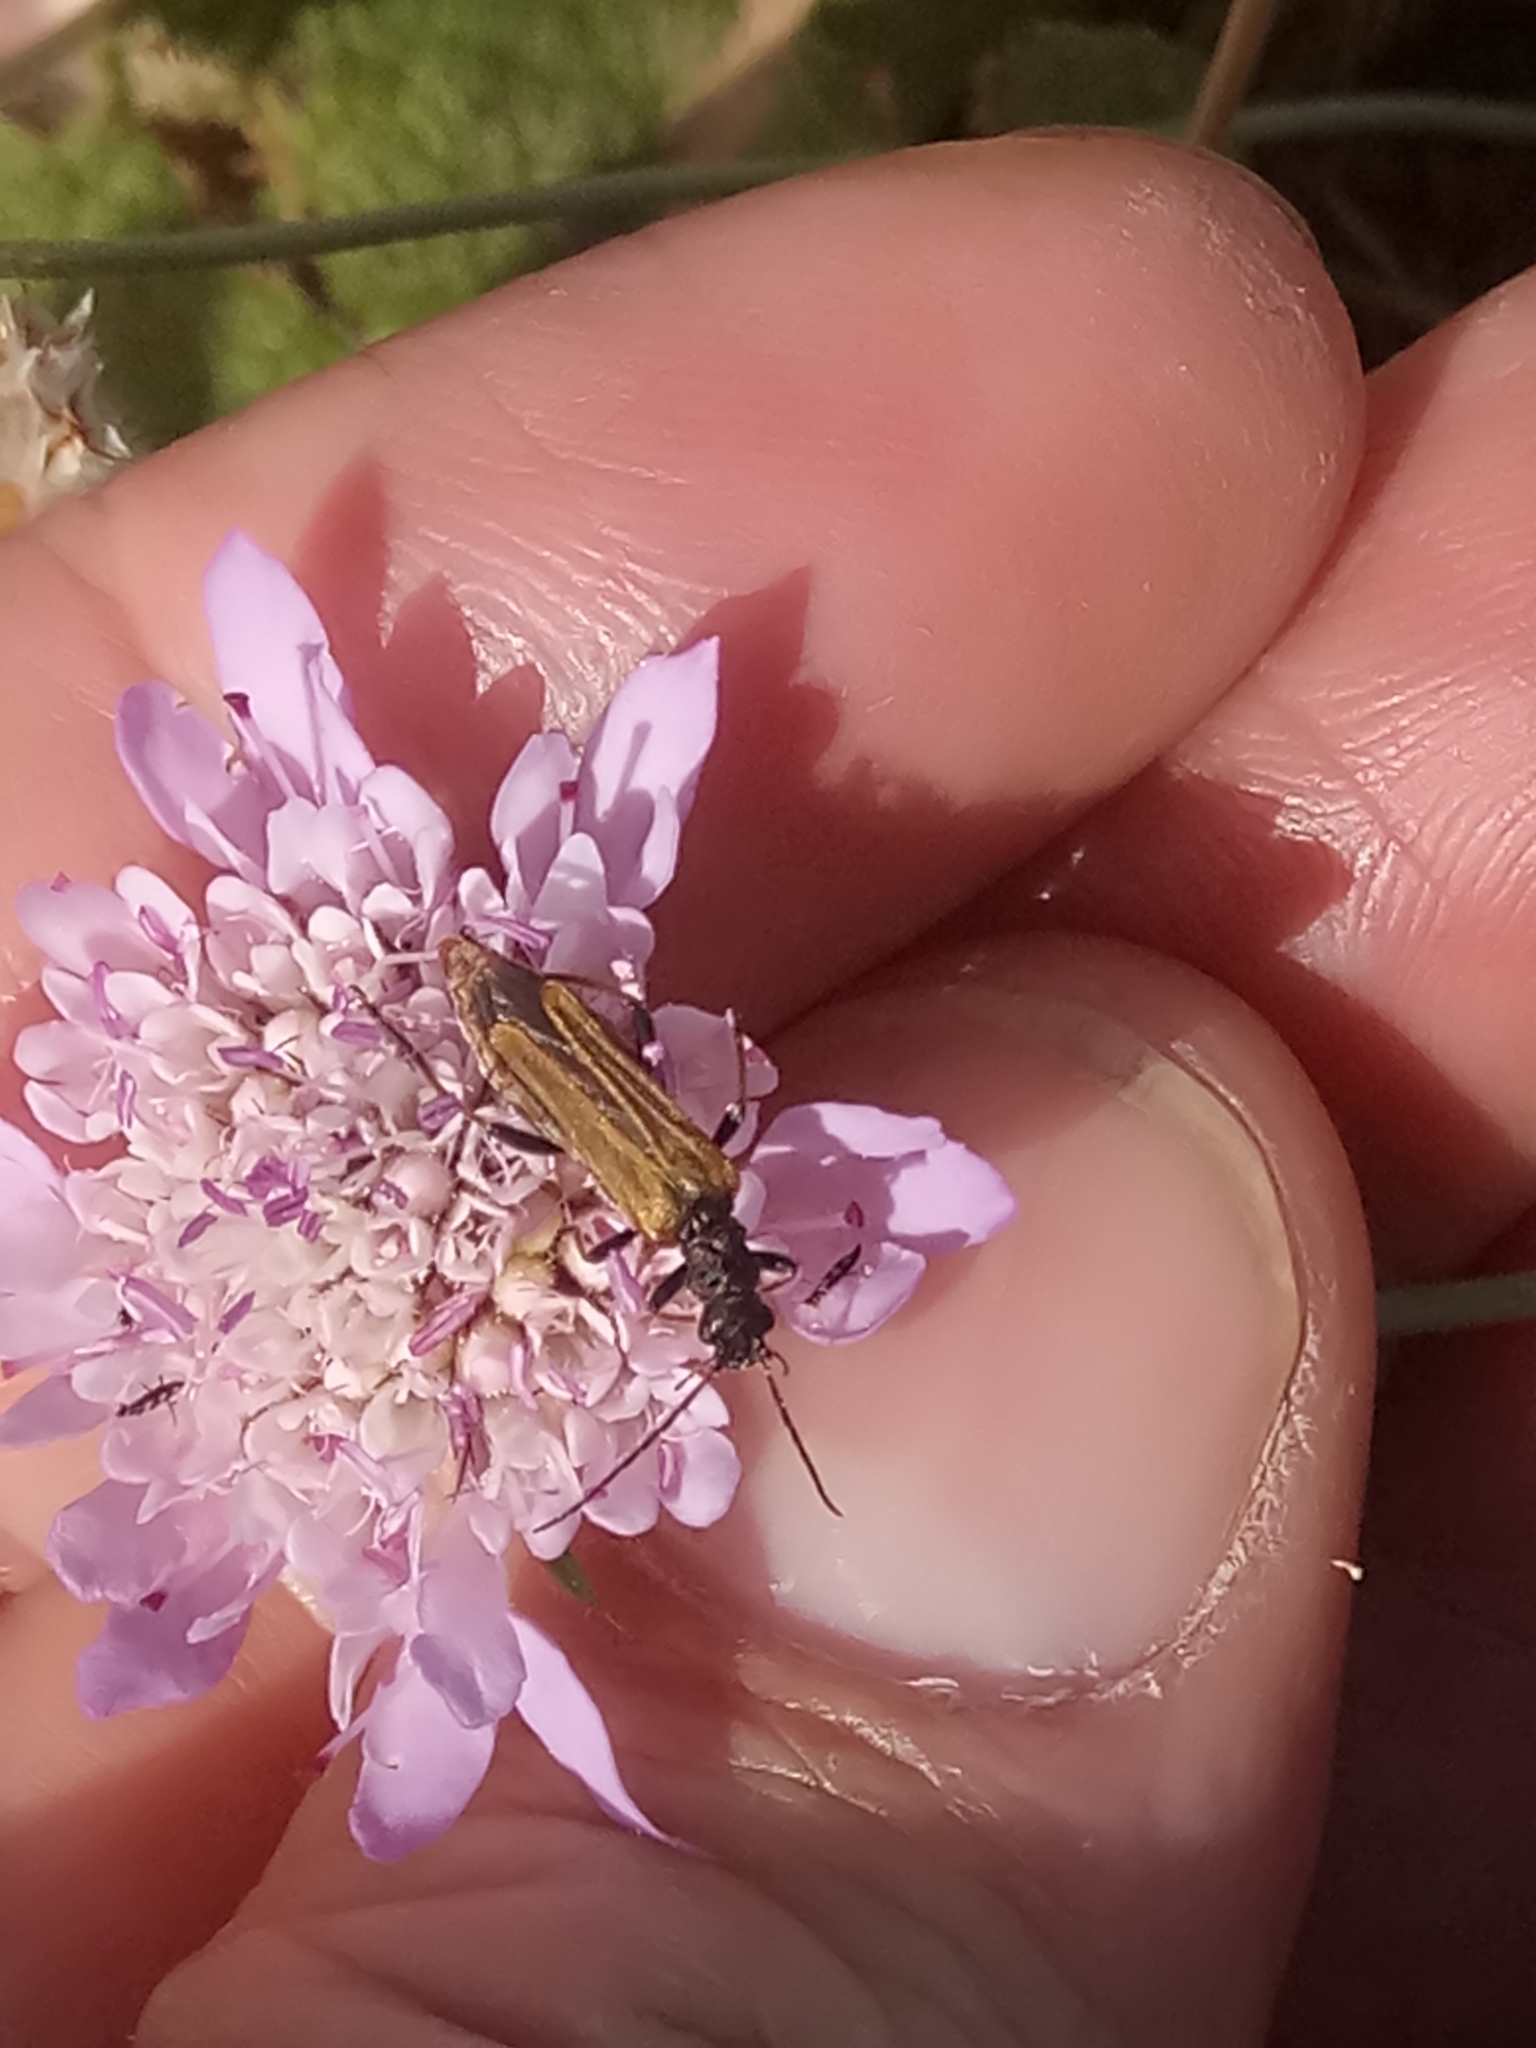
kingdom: Animalia
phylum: Arthropoda
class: Insecta
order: Coleoptera
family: Oedemeridae
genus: Oedemera
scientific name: Oedemera simplex
